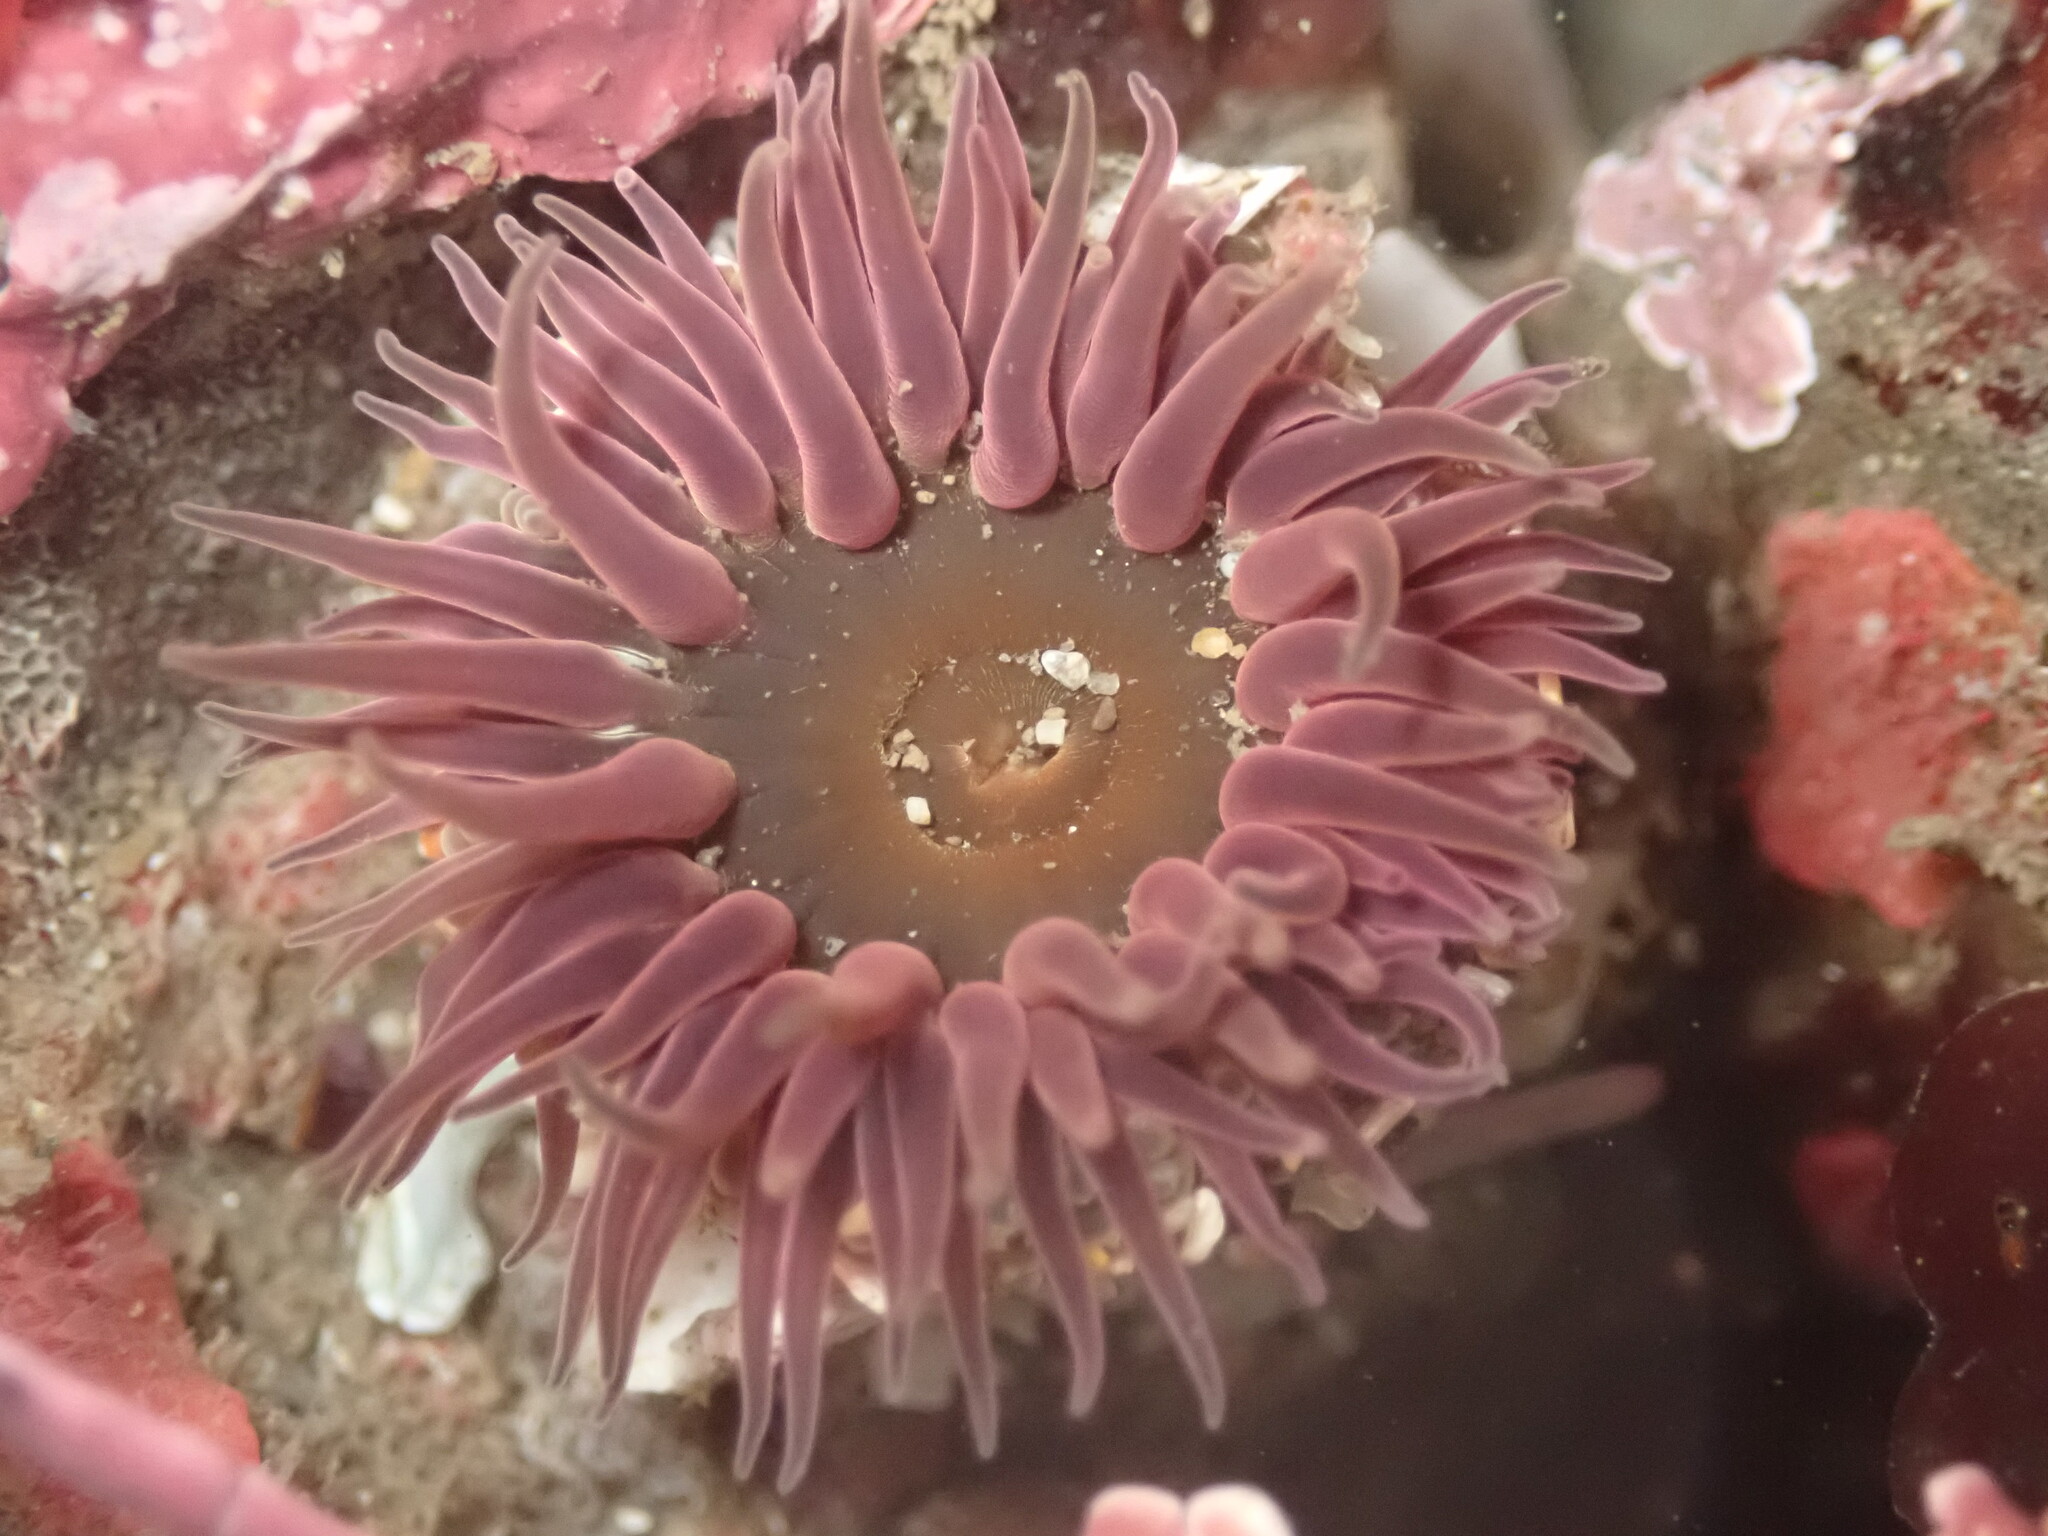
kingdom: Animalia
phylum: Cnidaria
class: Anthozoa
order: Actiniaria
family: Actiniidae
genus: Anthopleura
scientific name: Anthopleura artemisia
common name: Buried sea anemone
